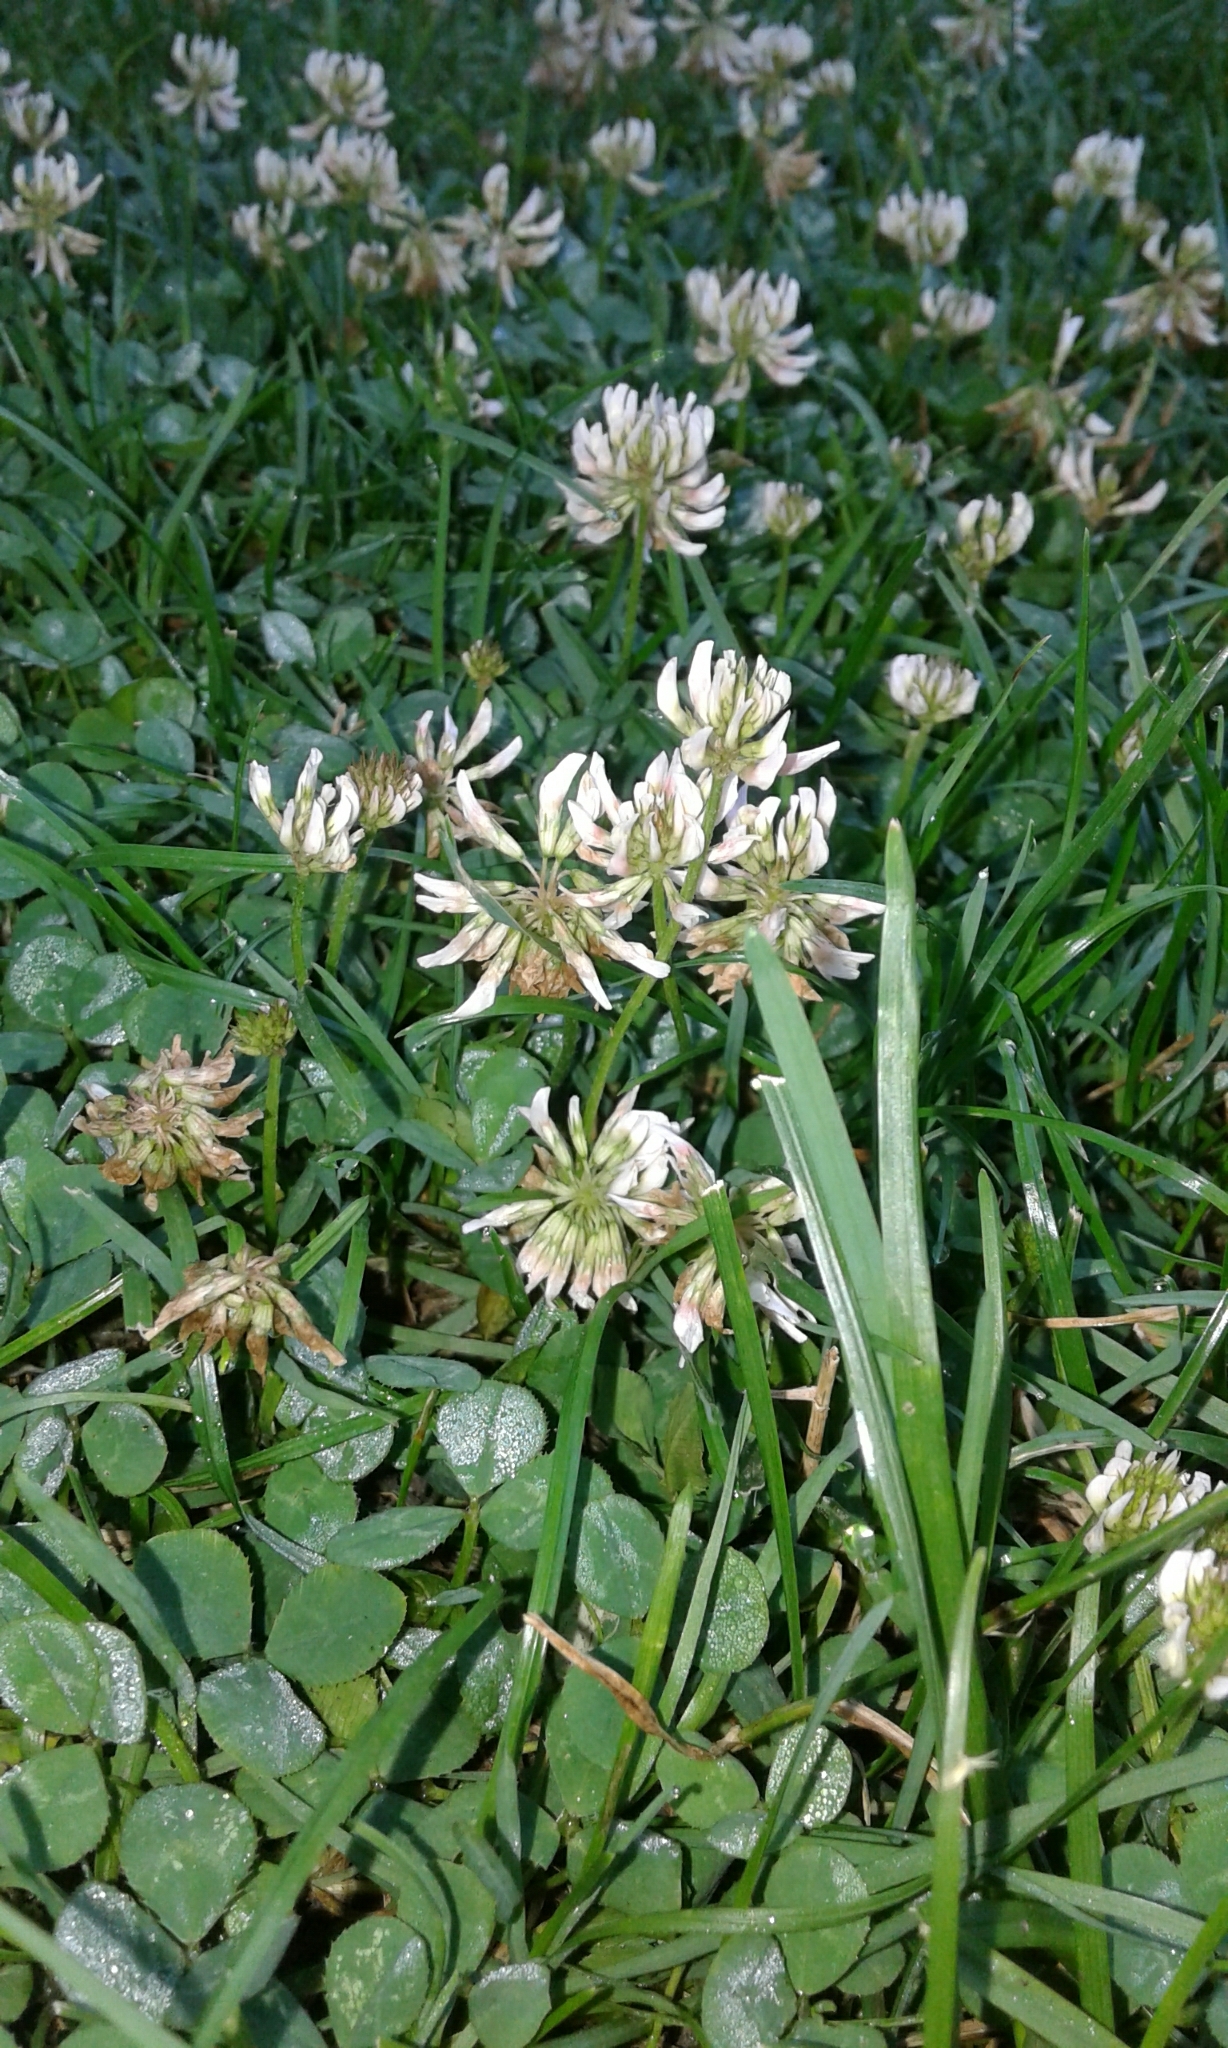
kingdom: Plantae
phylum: Tracheophyta
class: Magnoliopsida
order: Fabales
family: Fabaceae
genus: Trifolium
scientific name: Trifolium repens
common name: White clover
